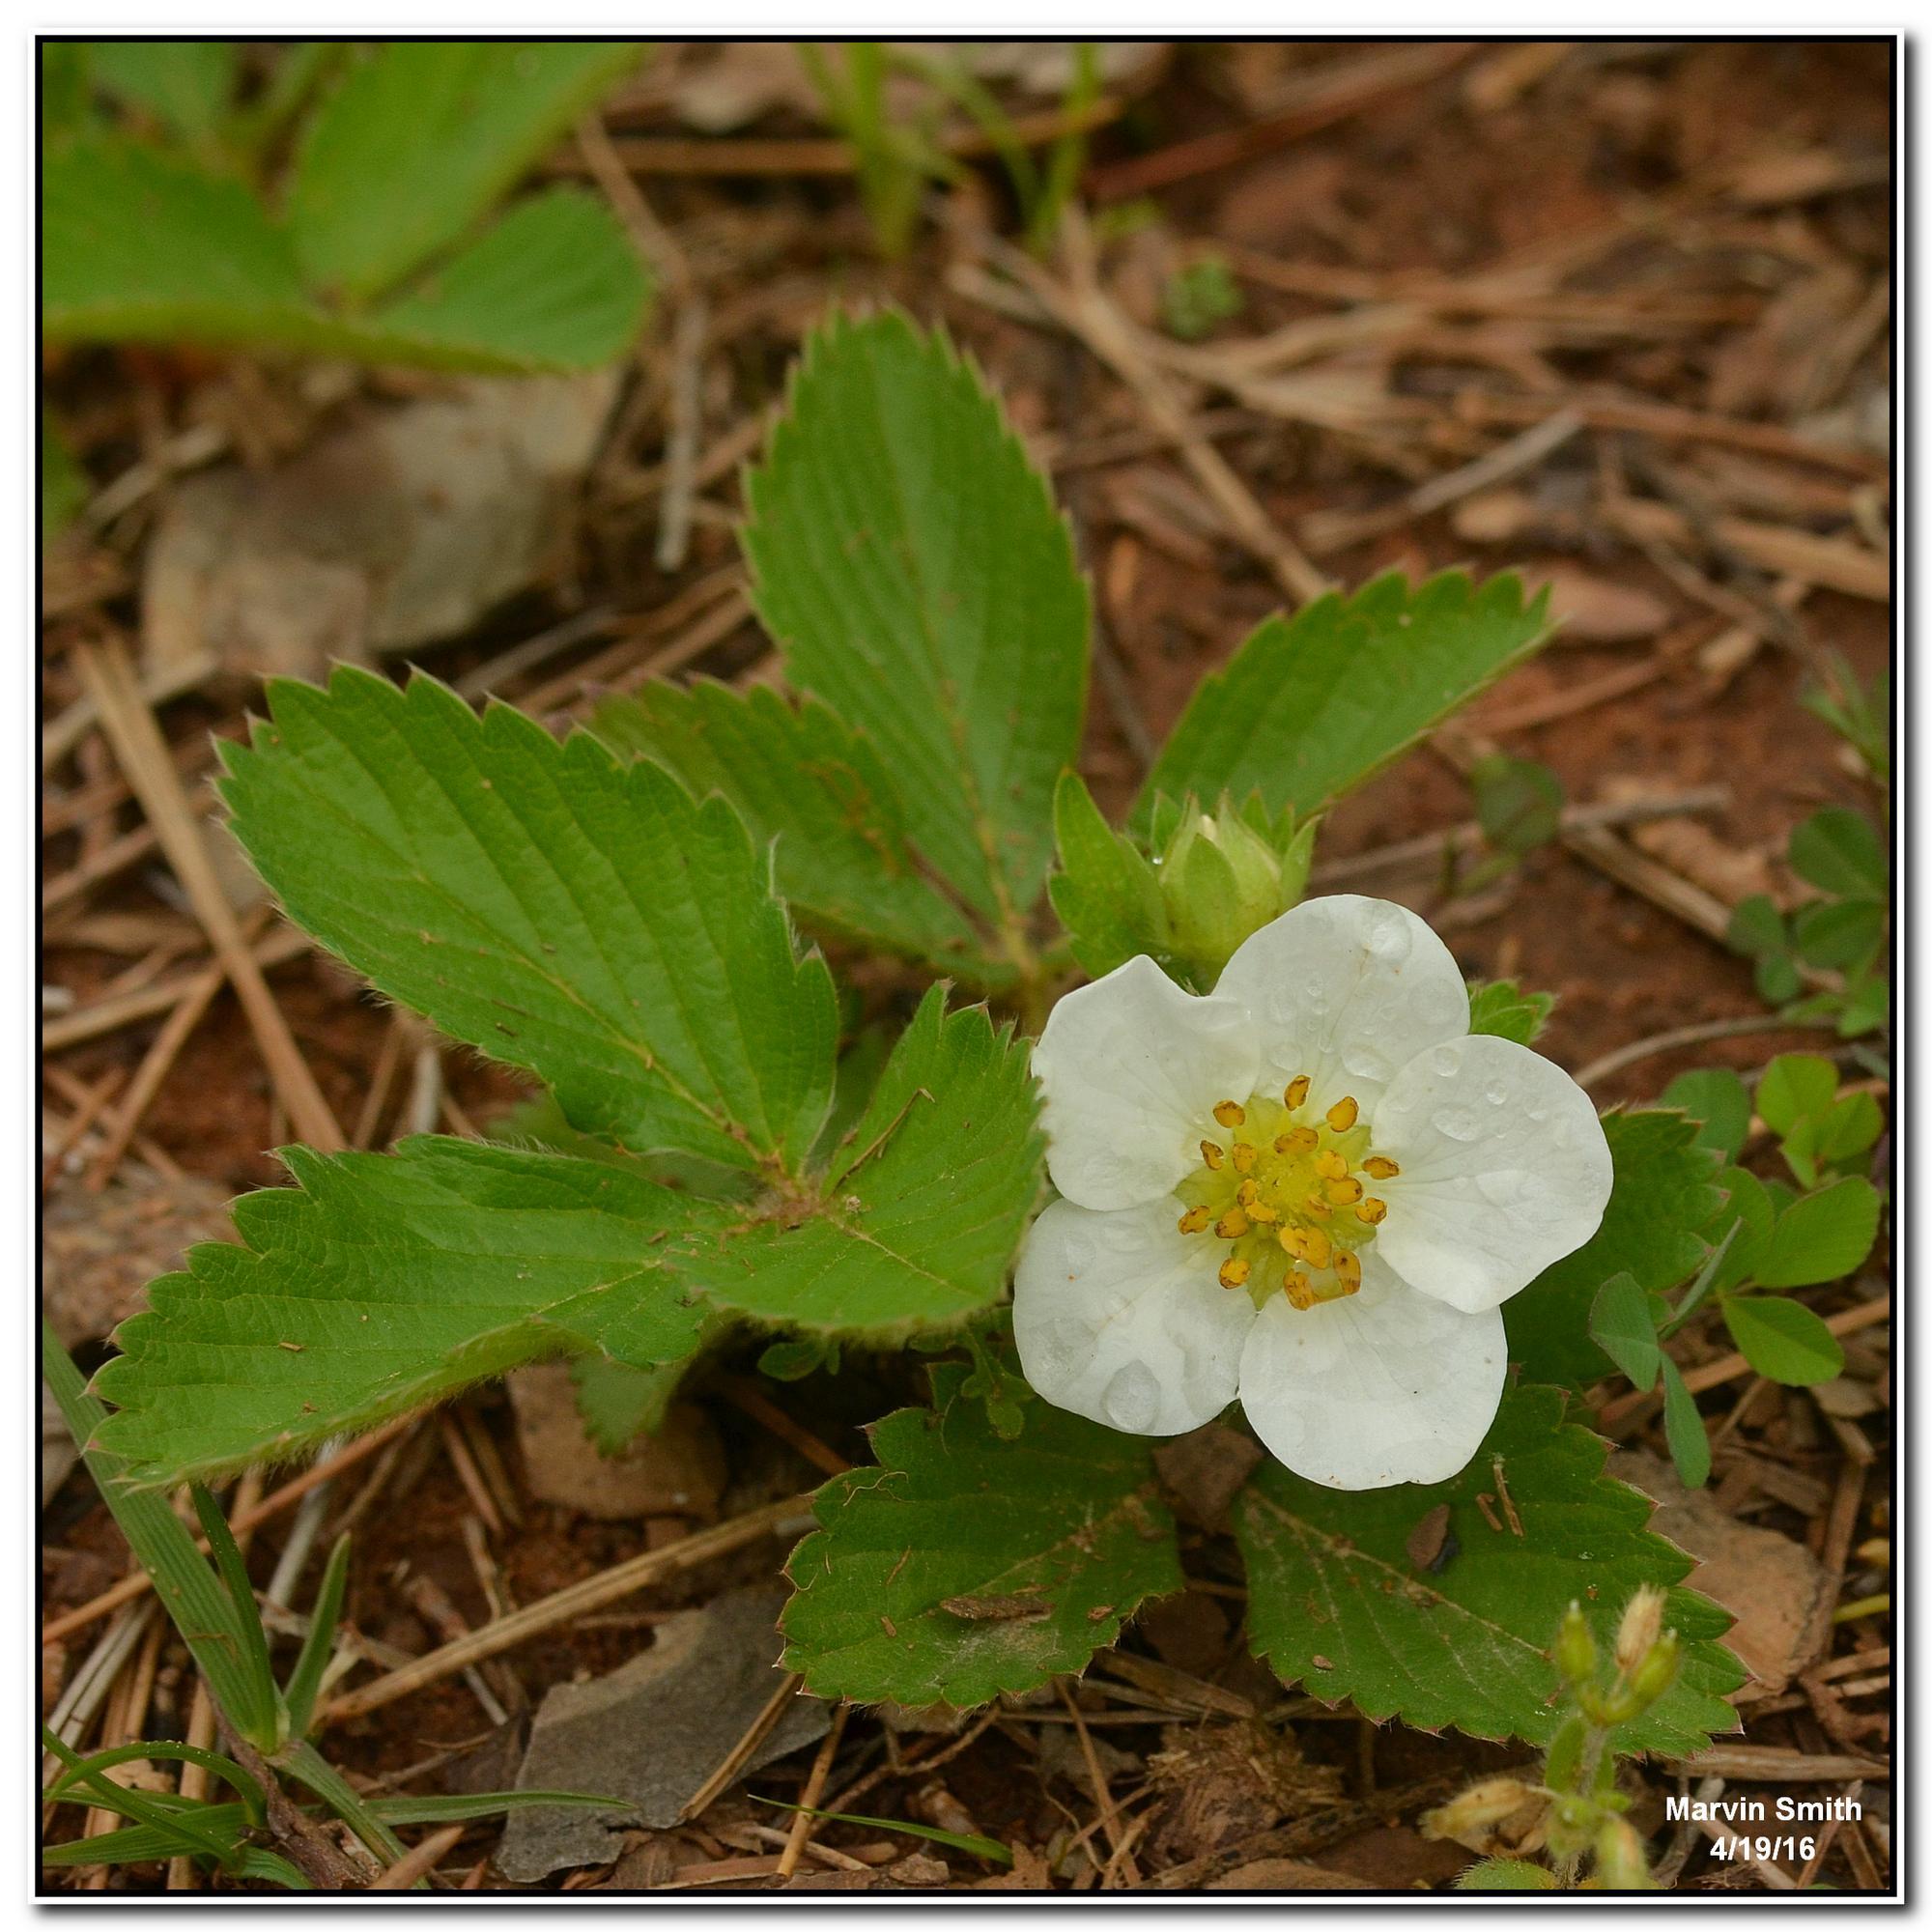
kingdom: Plantae
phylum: Tracheophyta
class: Magnoliopsida
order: Rosales
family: Rosaceae
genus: Fragaria
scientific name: Fragaria virginiana
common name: Thickleaved wild strawberry
